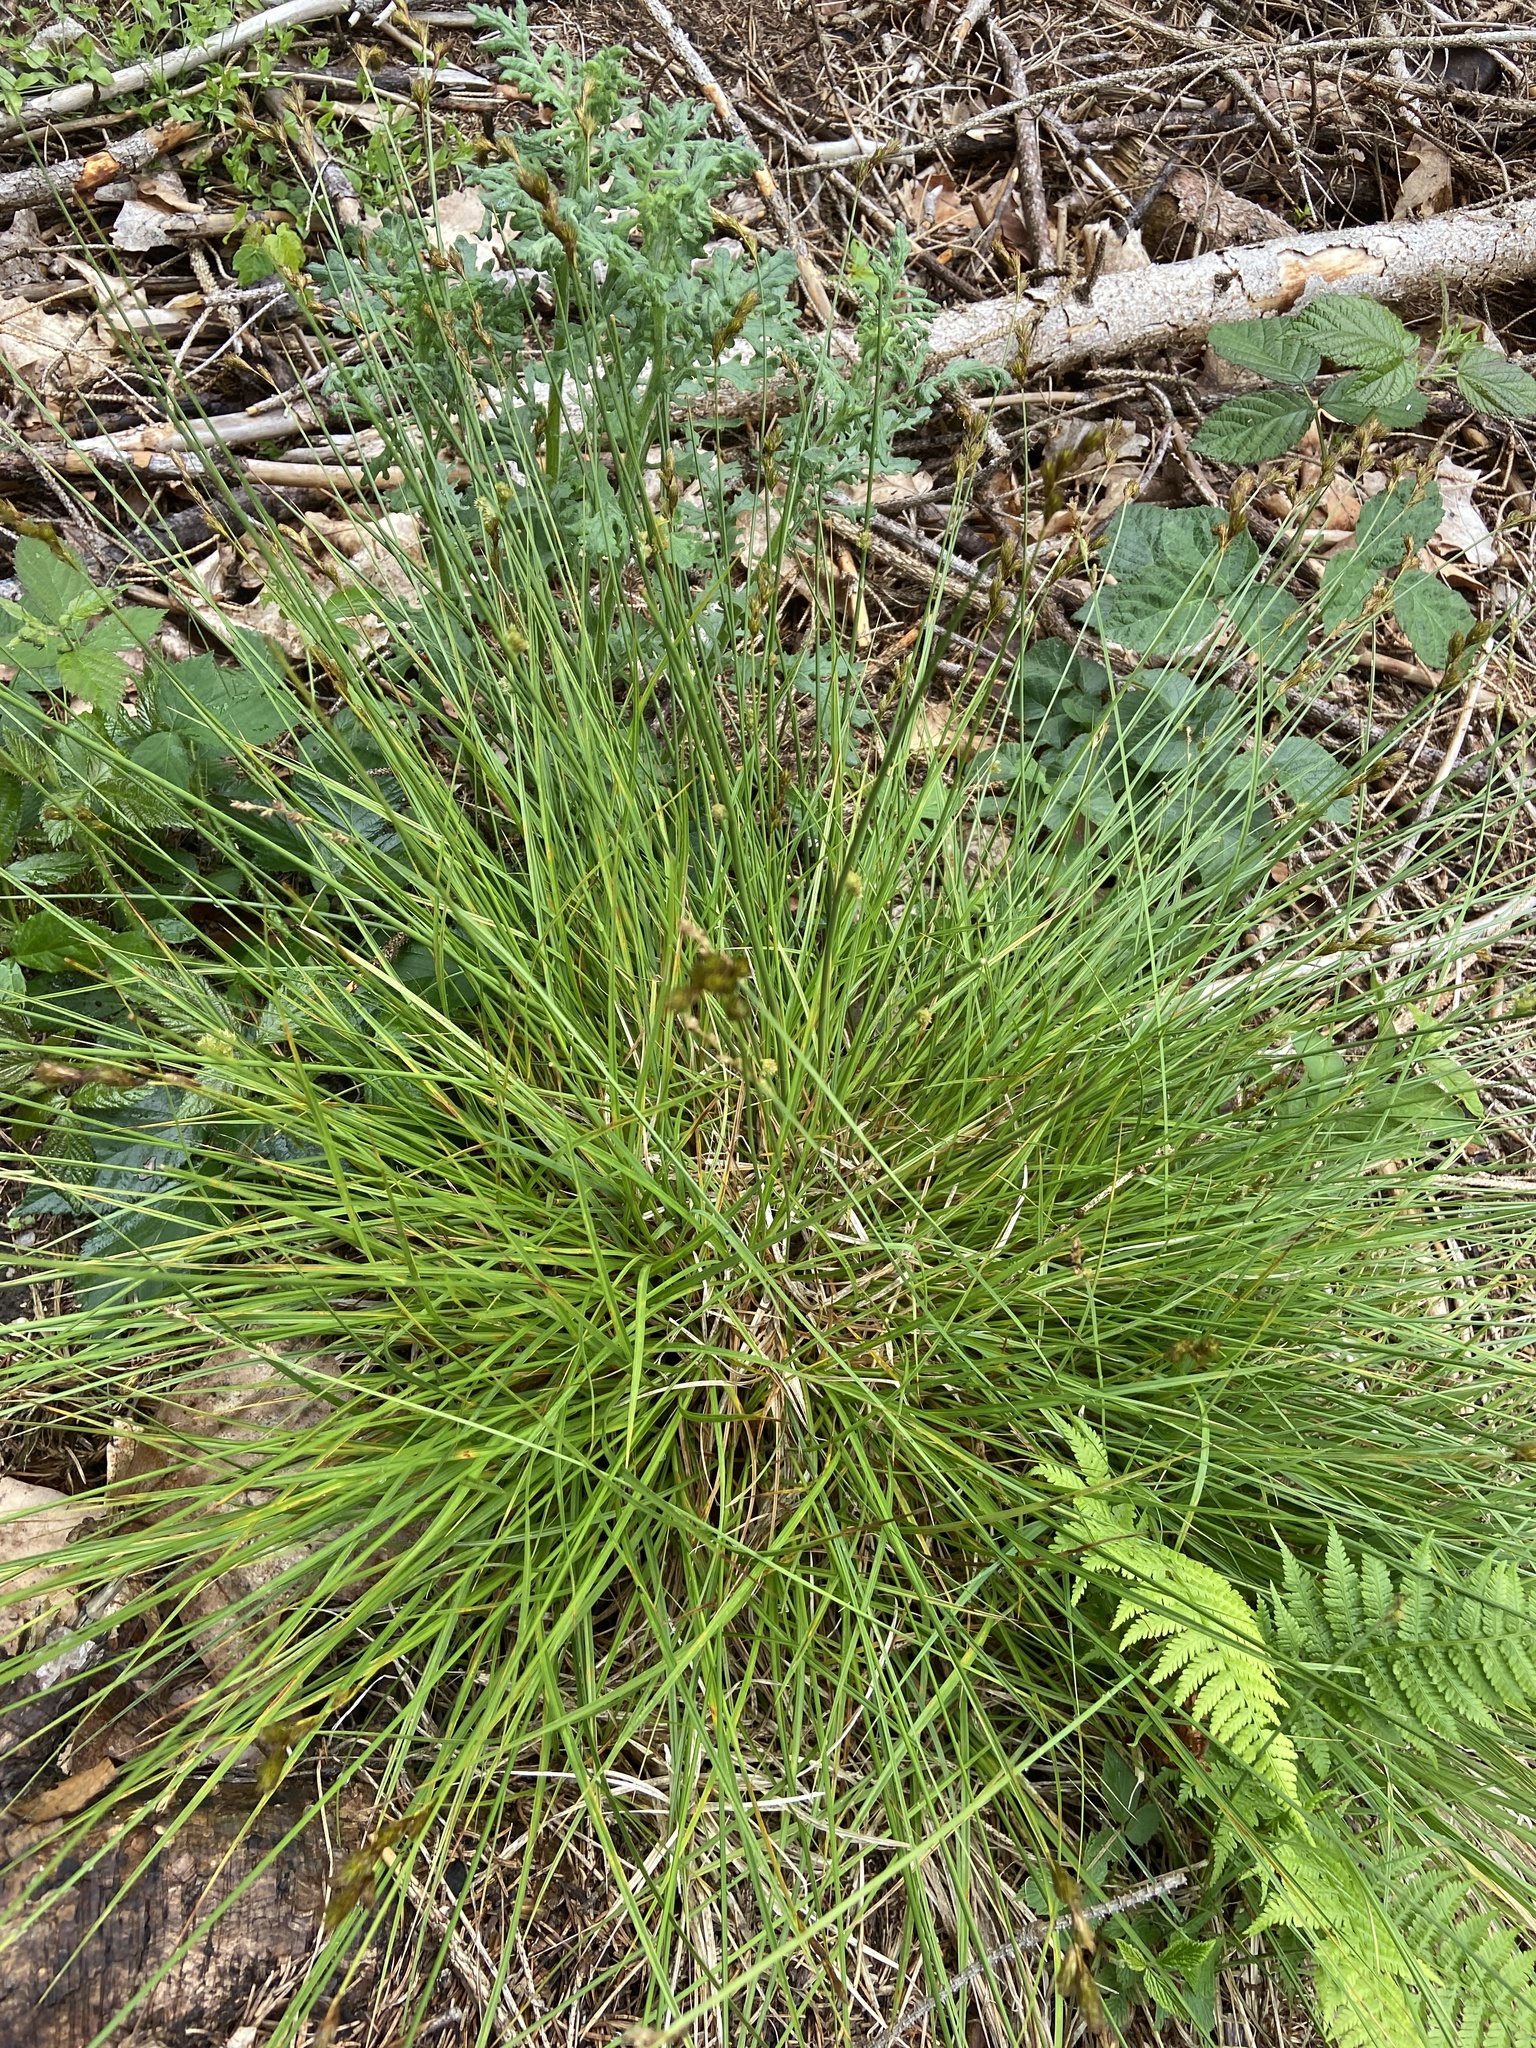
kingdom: Plantae
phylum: Tracheophyta
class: Liliopsida
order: Poales
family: Cyperaceae
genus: Carex
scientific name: Carex leporina
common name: Oval sedge
